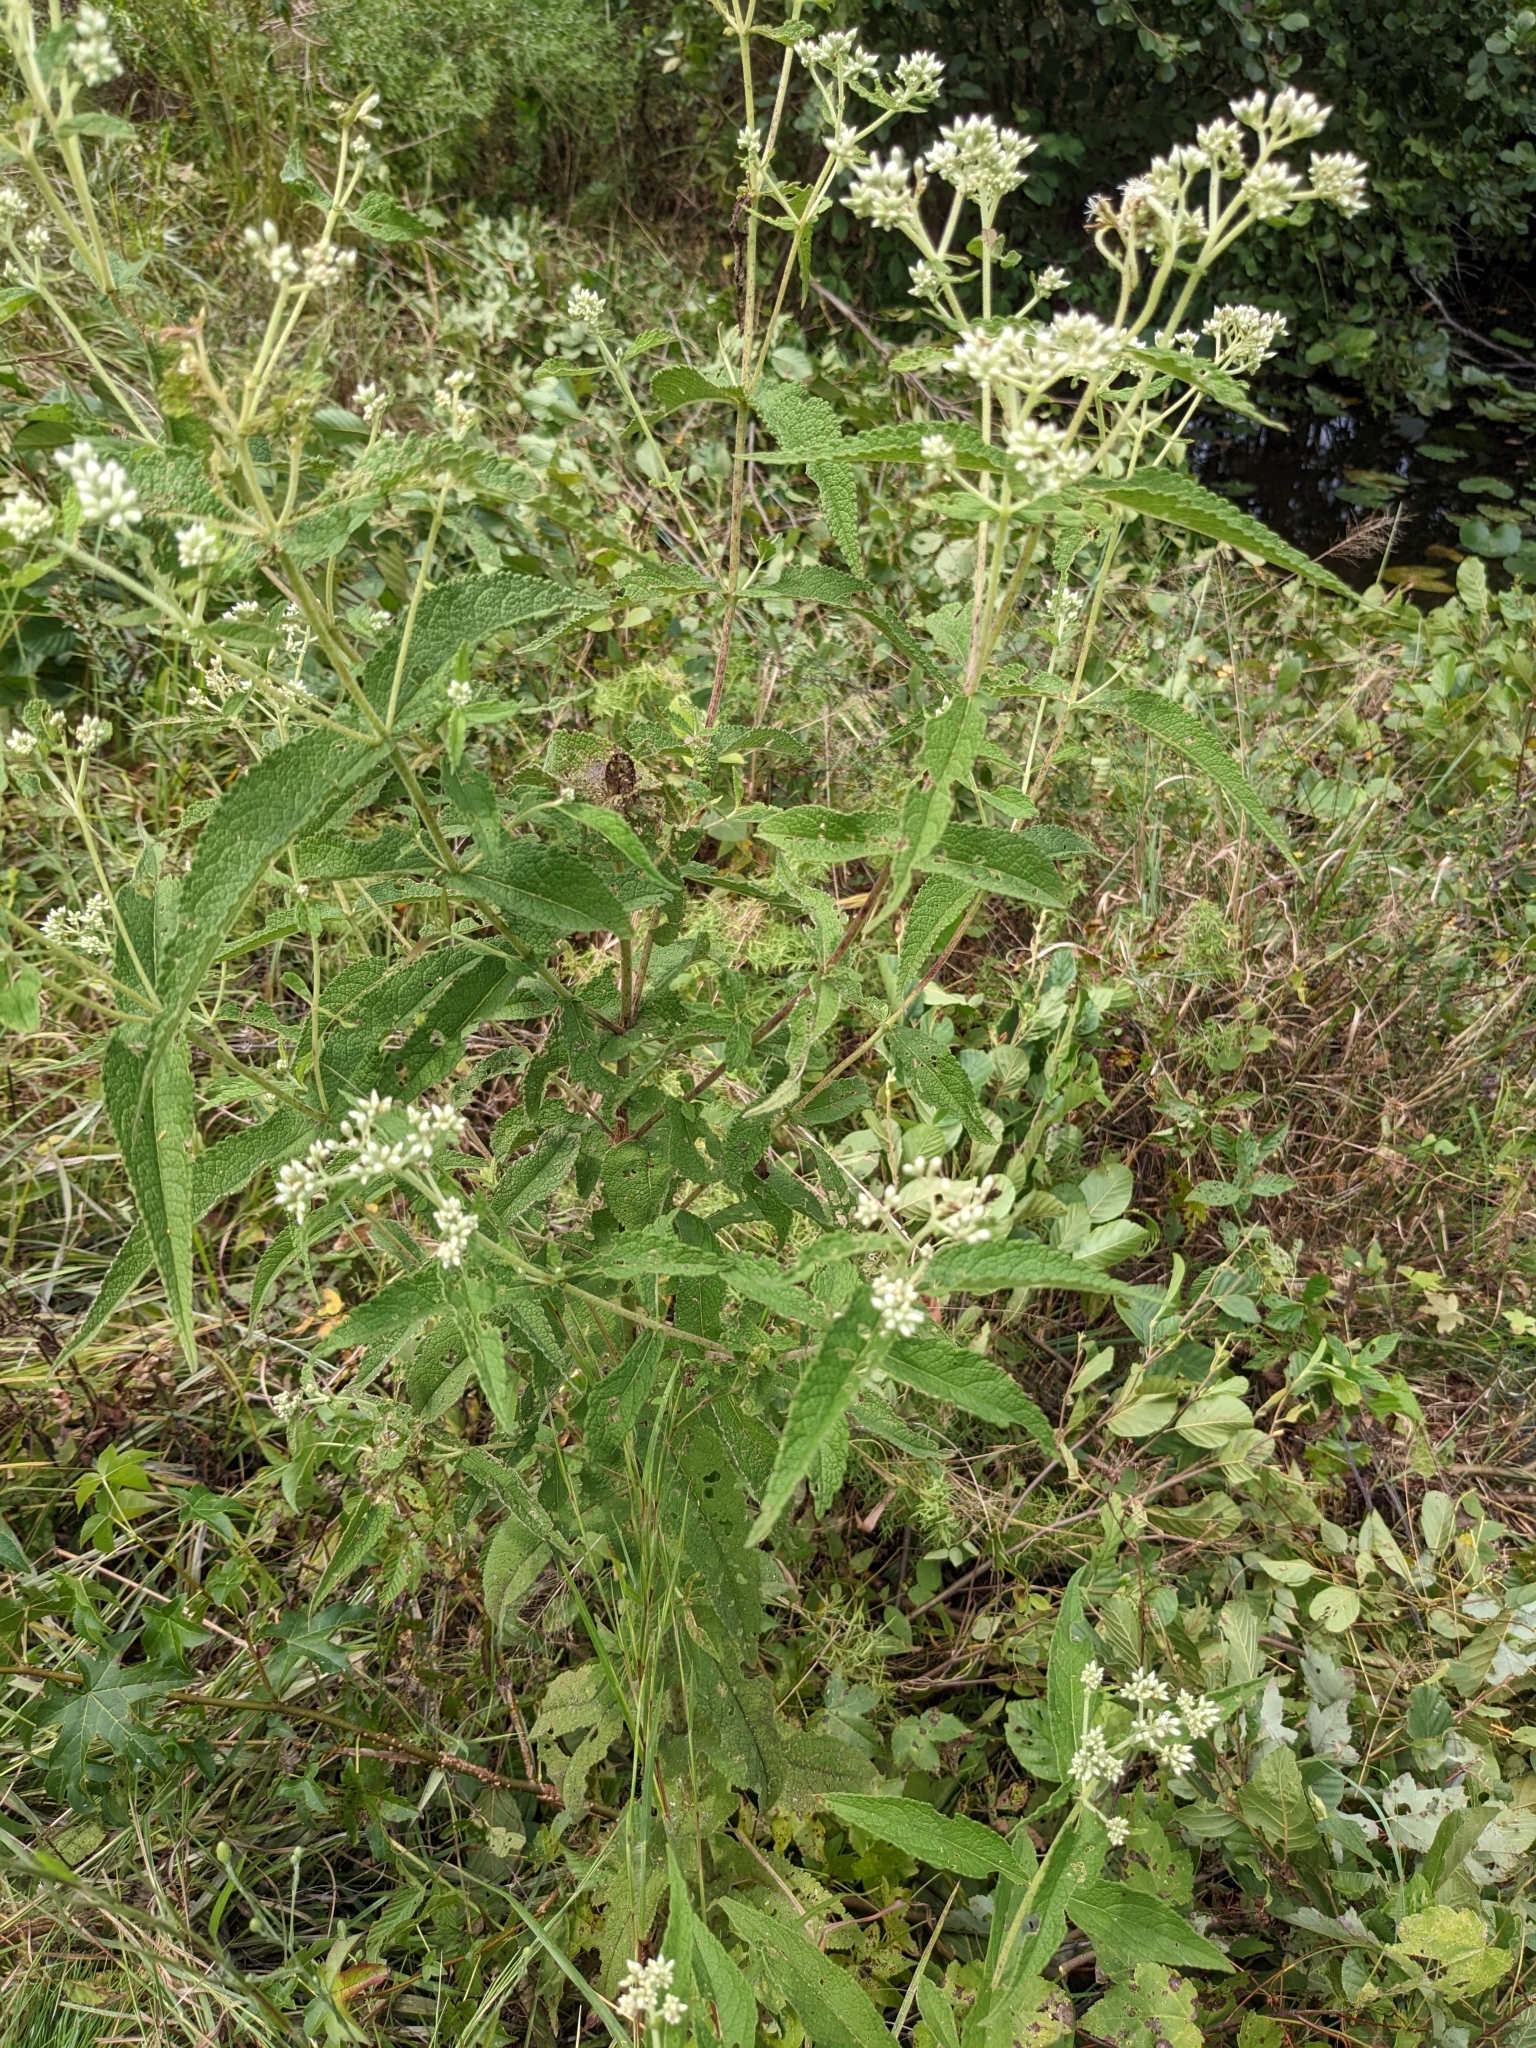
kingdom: Plantae
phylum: Tracheophyta
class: Magnoliopsida
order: Asterales
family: Asteraceae
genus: Eupatorium
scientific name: Eupatorium perfoliatum
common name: Boneset
